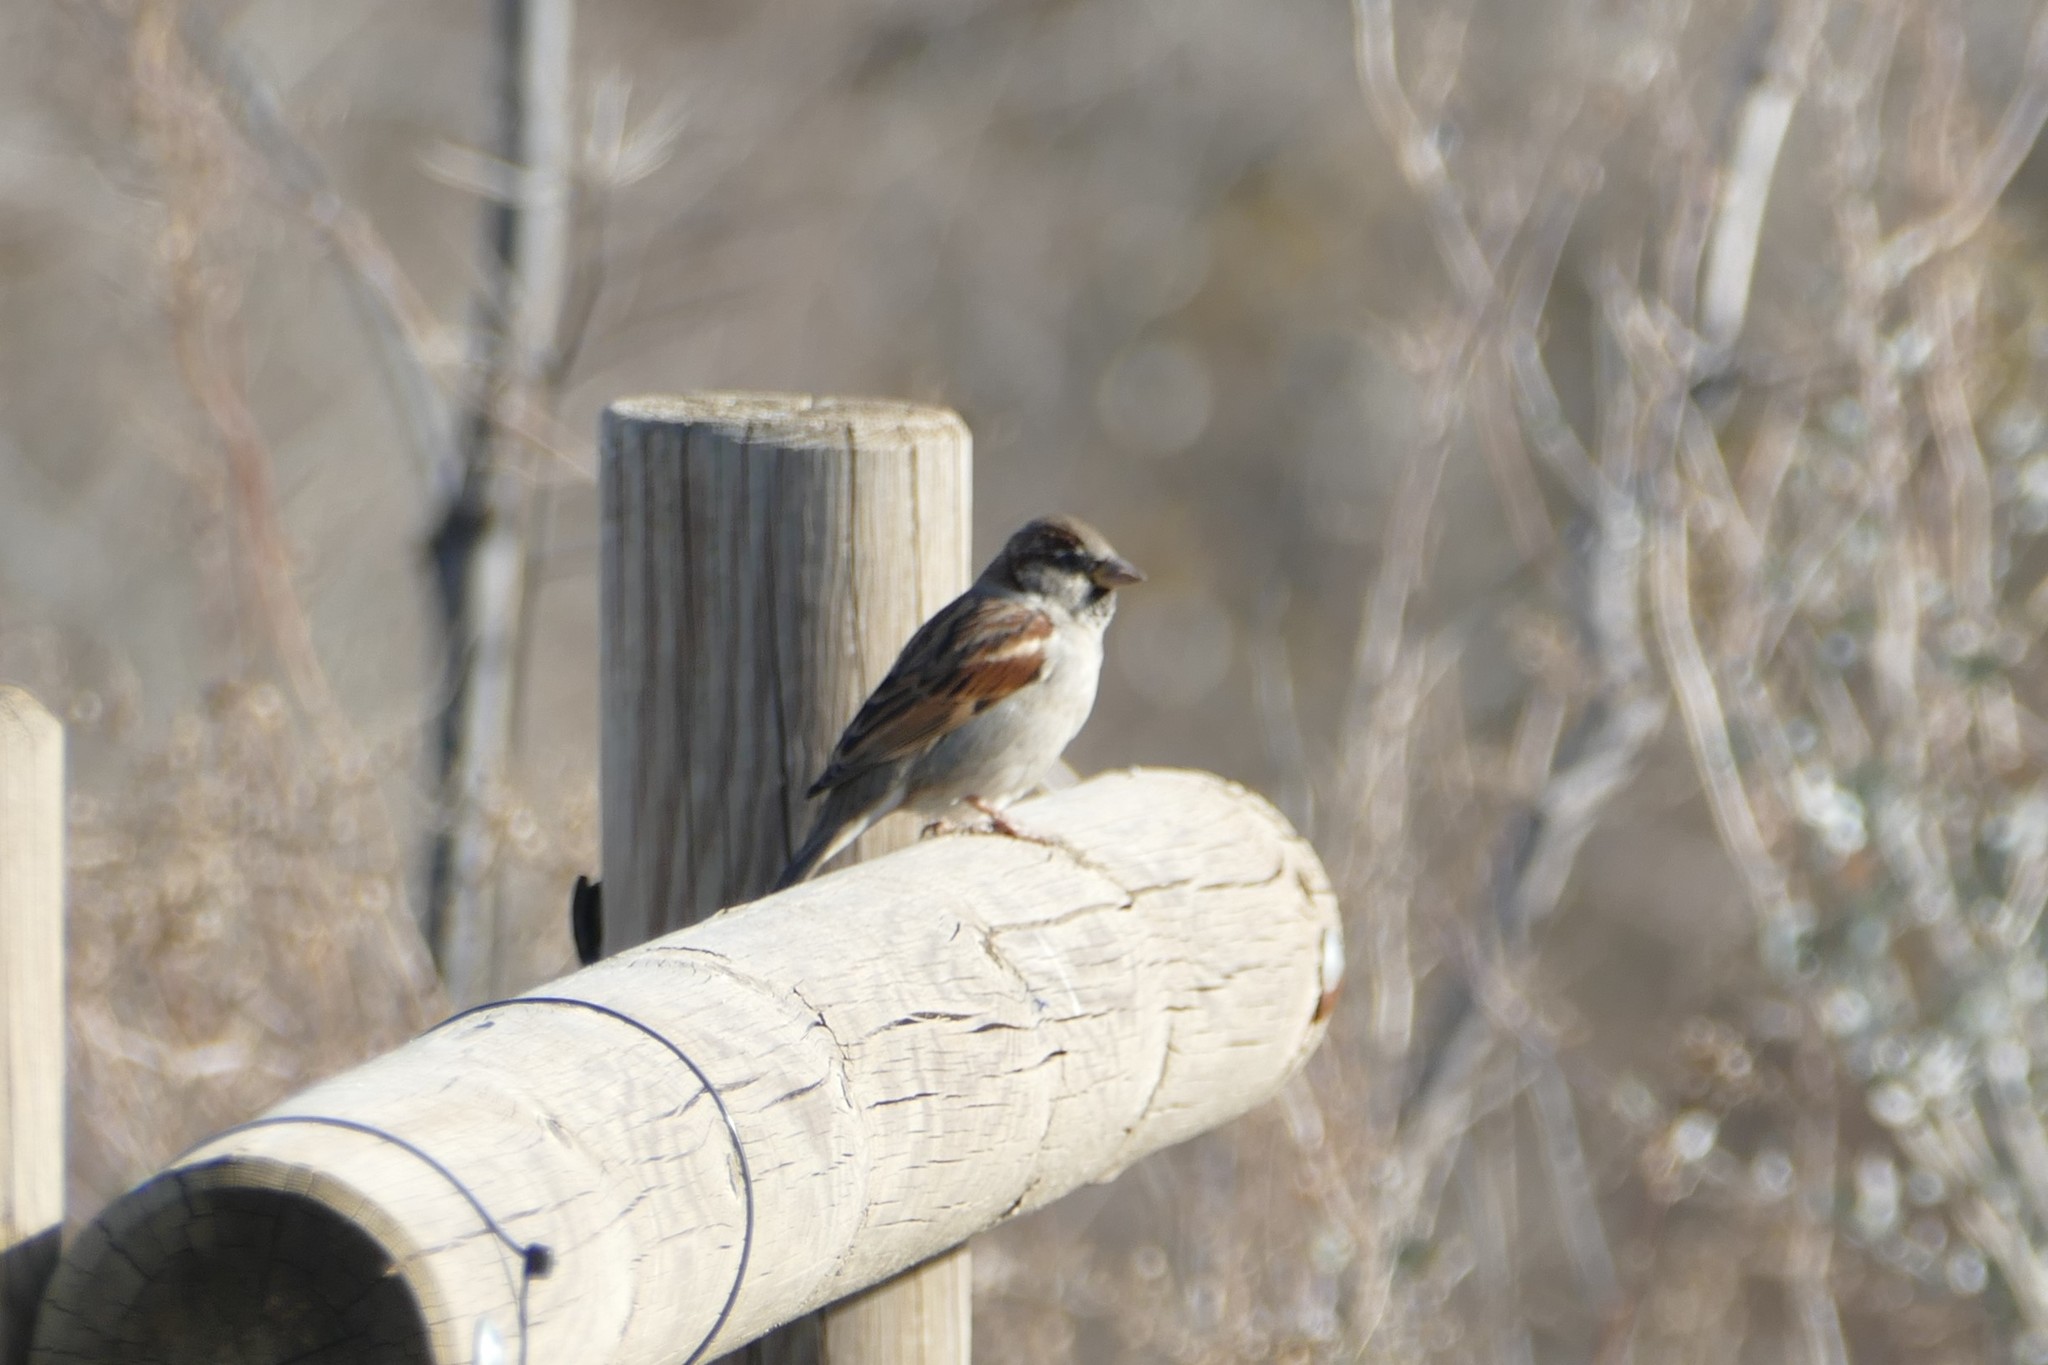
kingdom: Animalia
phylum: Chordata
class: Aves
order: Passeriformes
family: Passeridae
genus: Passer
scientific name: Passer domesticus
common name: House sparrow
